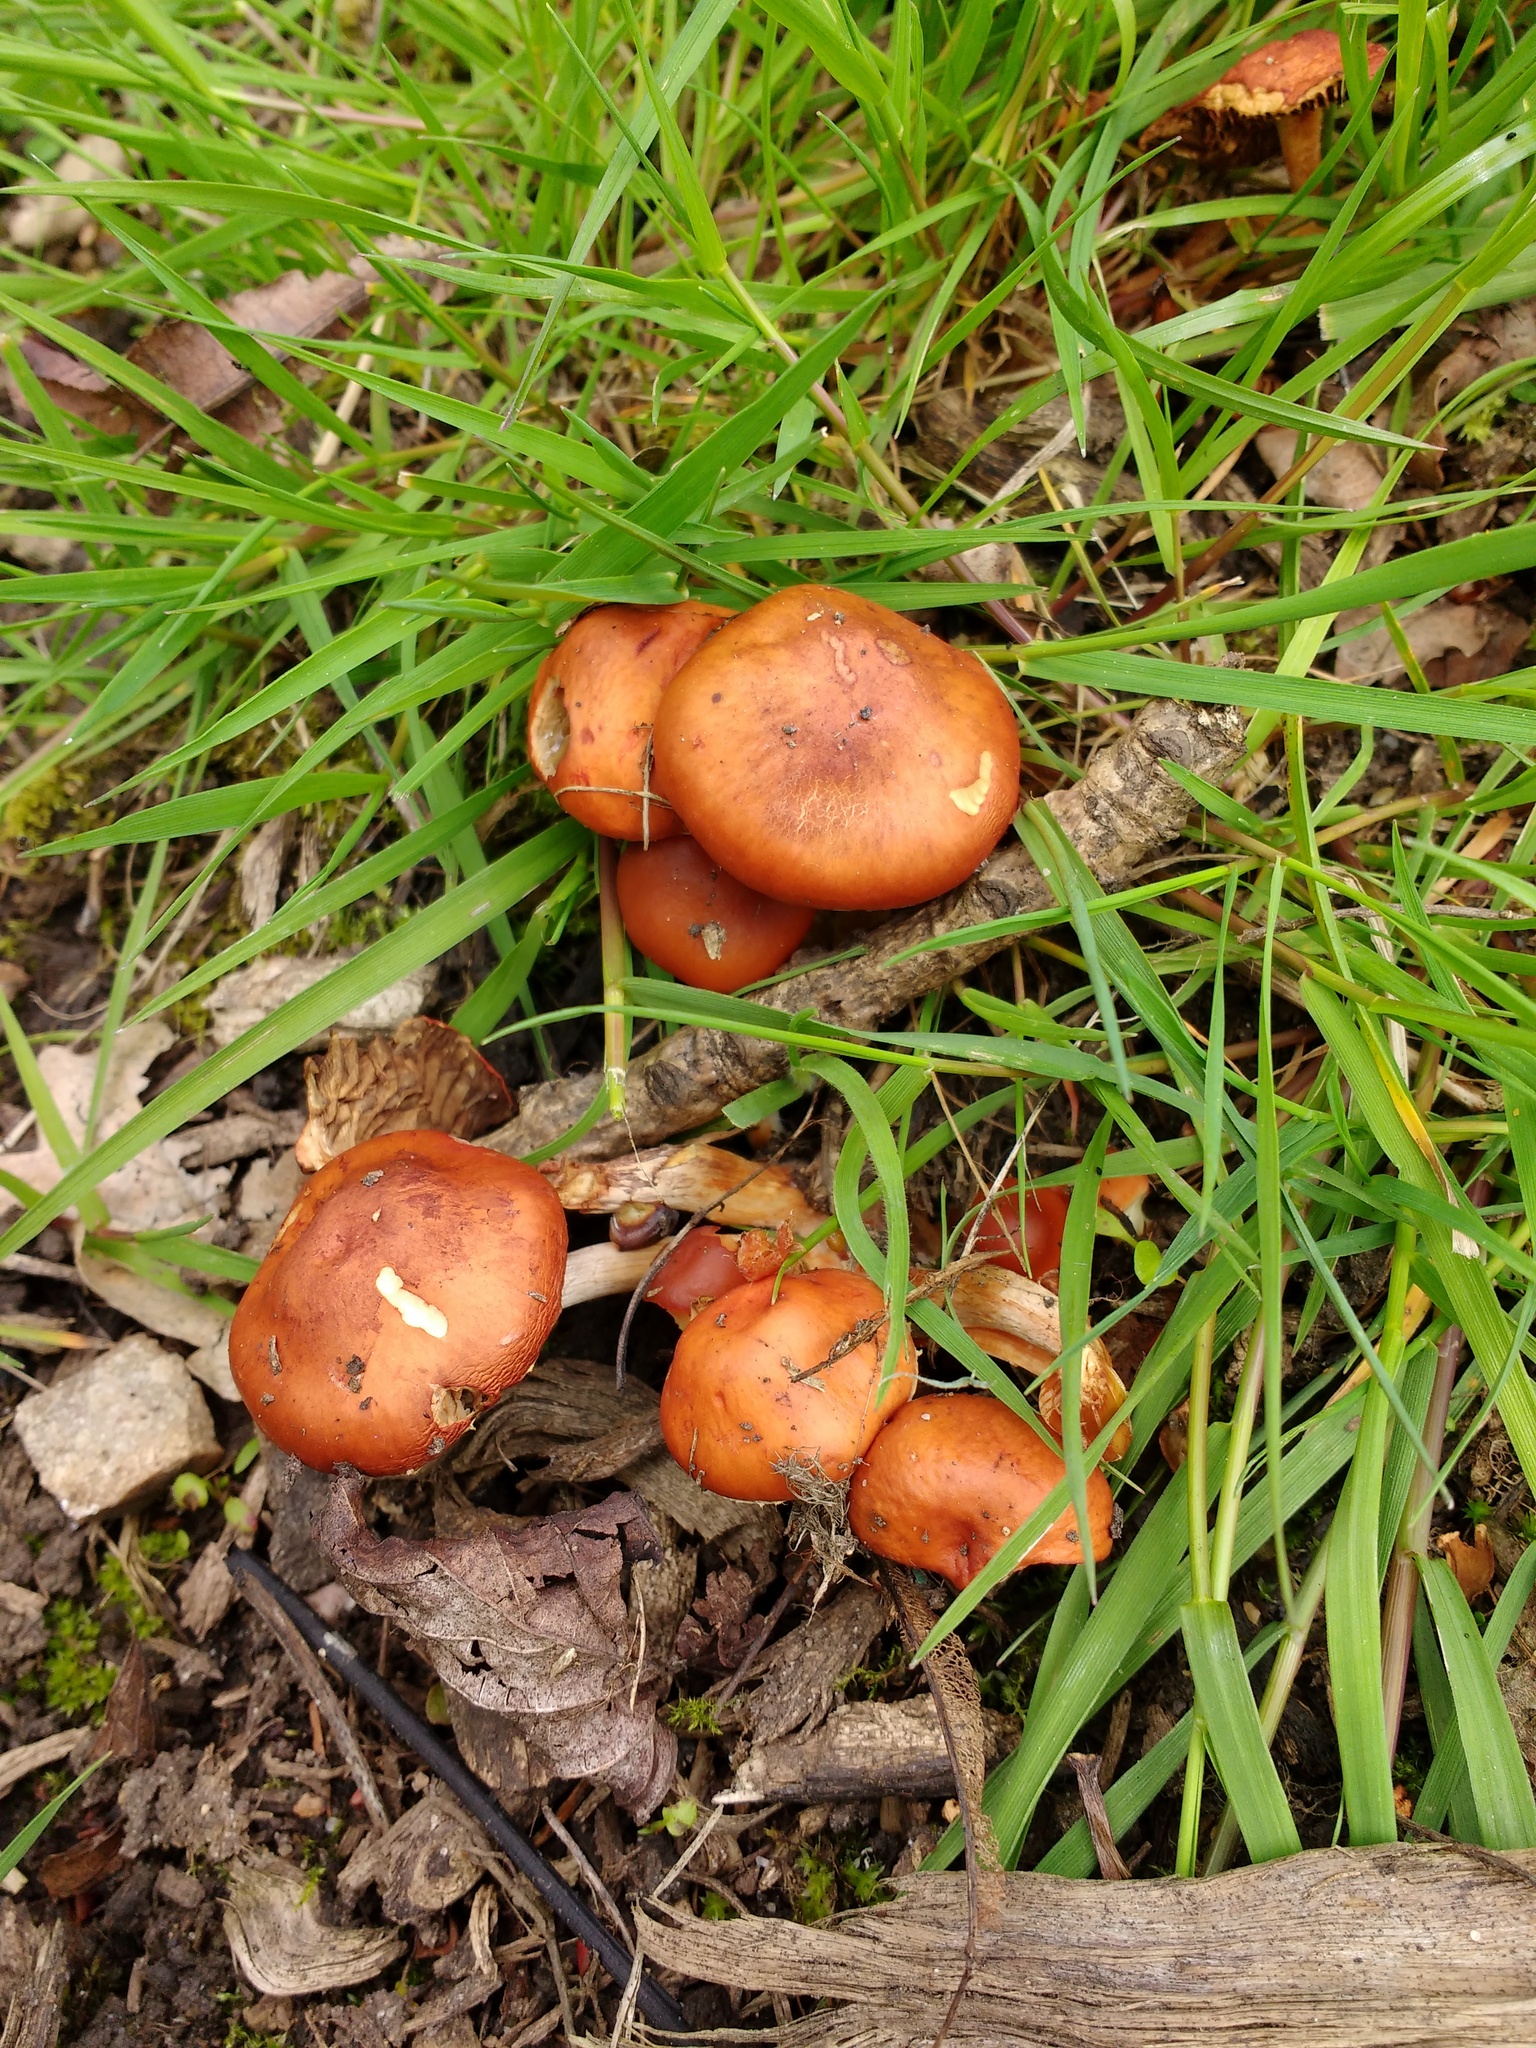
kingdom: Fungi
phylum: Basidiomycota
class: Agaricomycetes
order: Agaricales
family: Strophariaceae
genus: Leratiomyces
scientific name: Leratiomyces ceres
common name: Redlead roundhead
